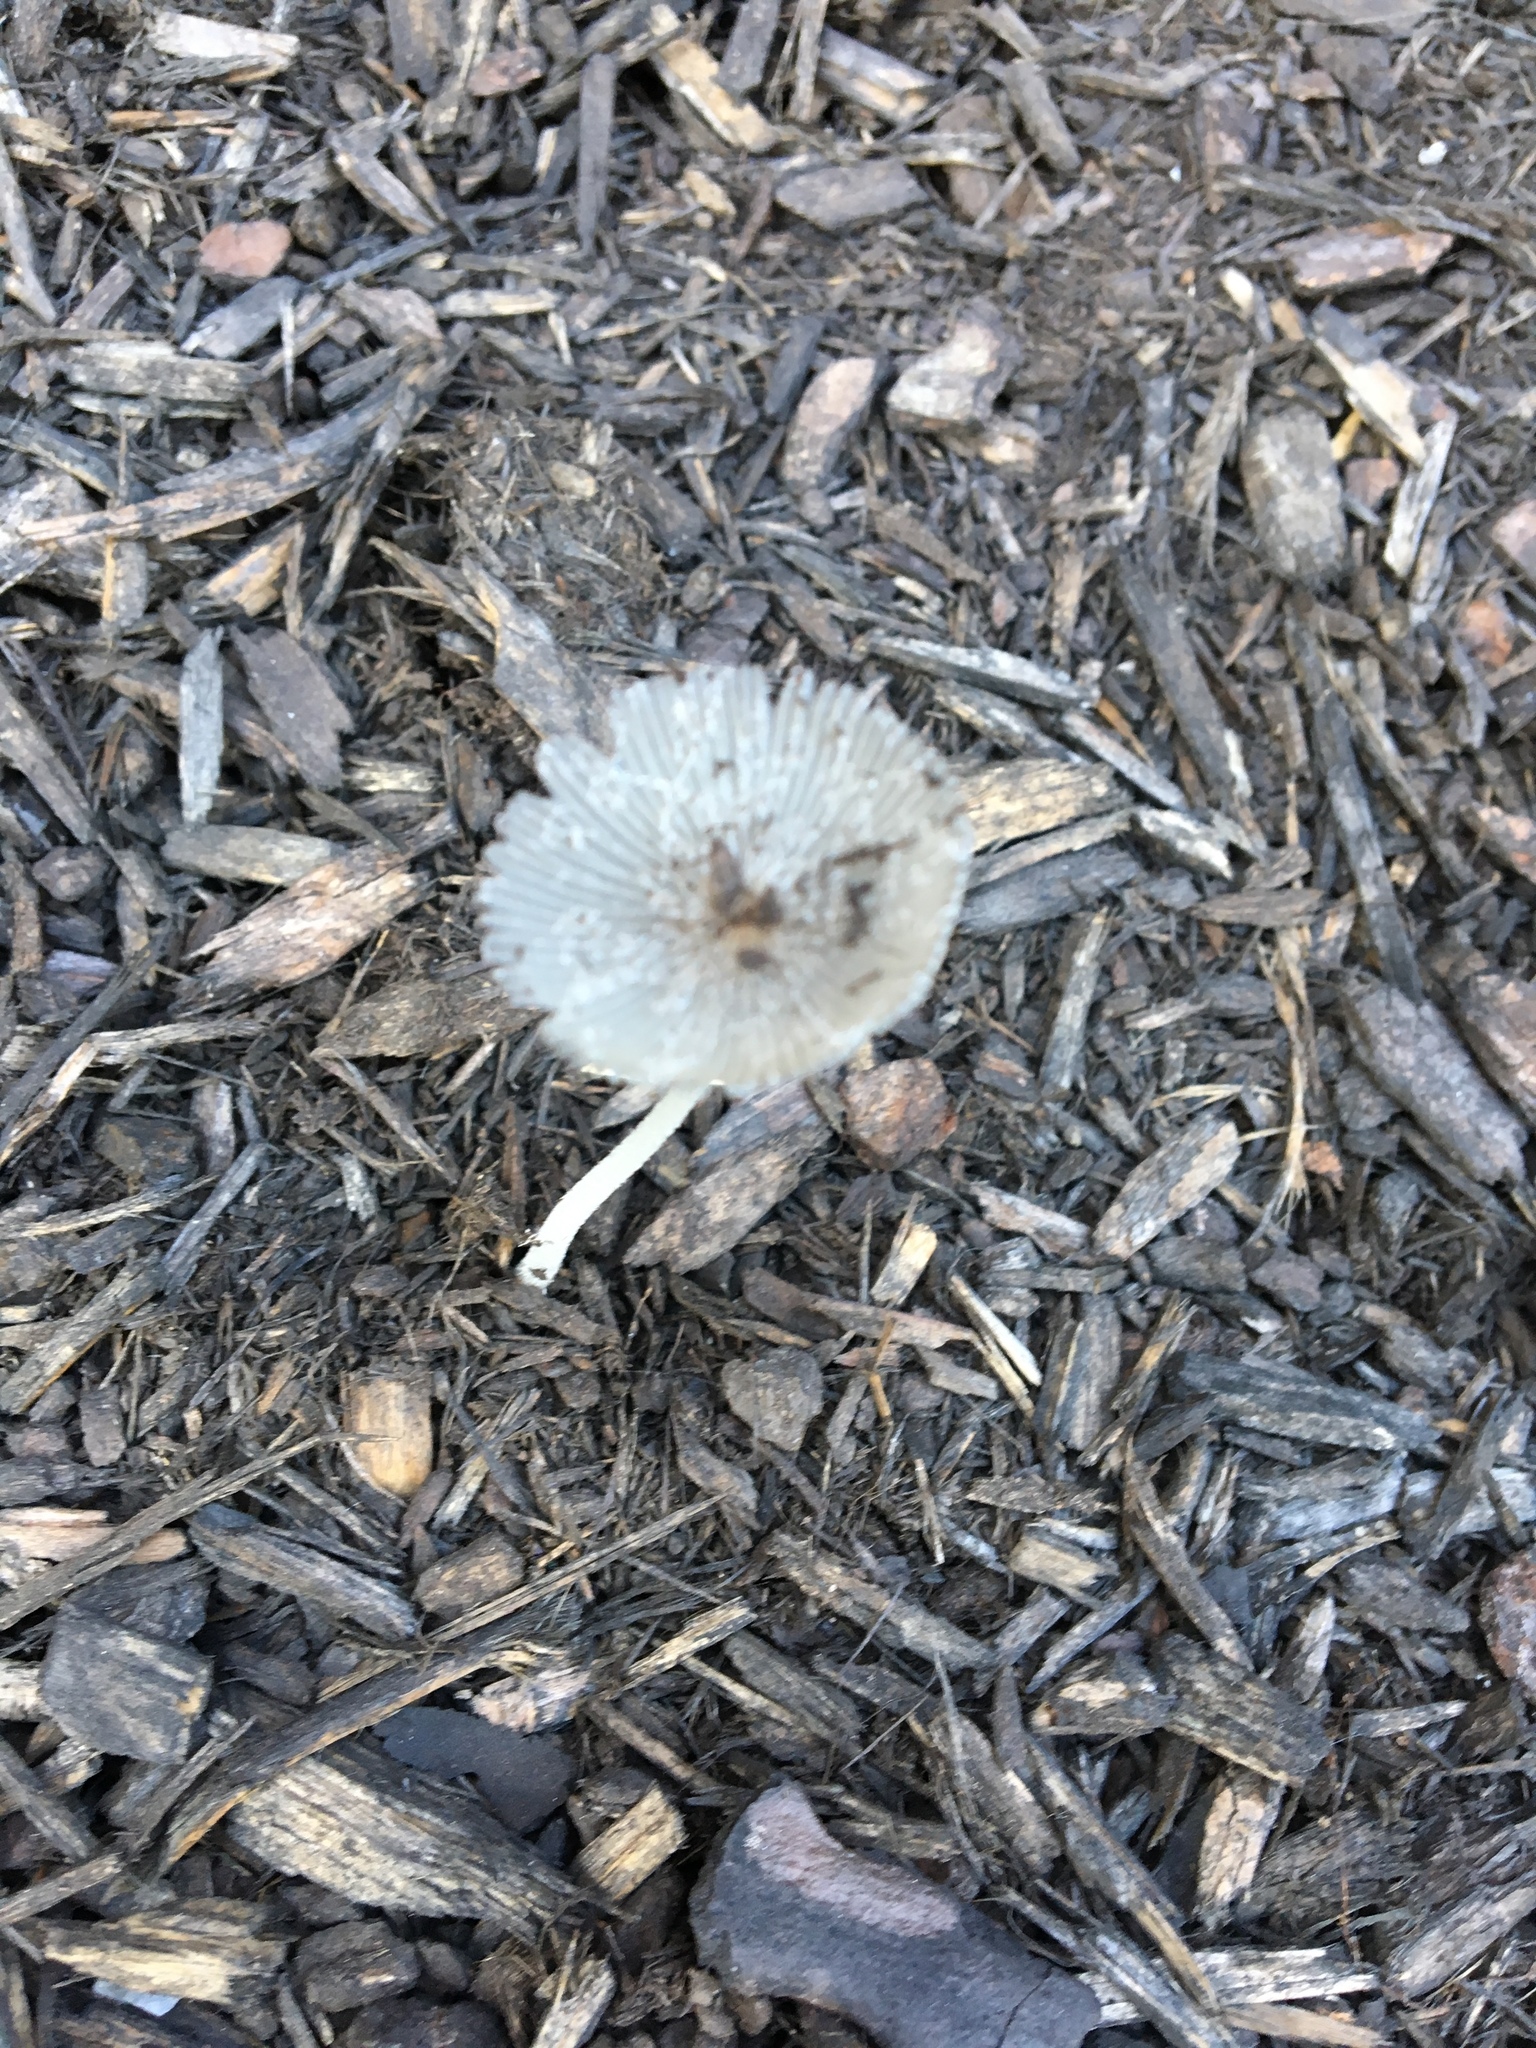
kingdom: Fungi
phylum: Basidiomycota
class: Agaricomycetes
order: Agaricales
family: Psathyrellaceae
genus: Coprinopsis
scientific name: Coprinopsis lagopus
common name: Hare'sfoot inkcap
